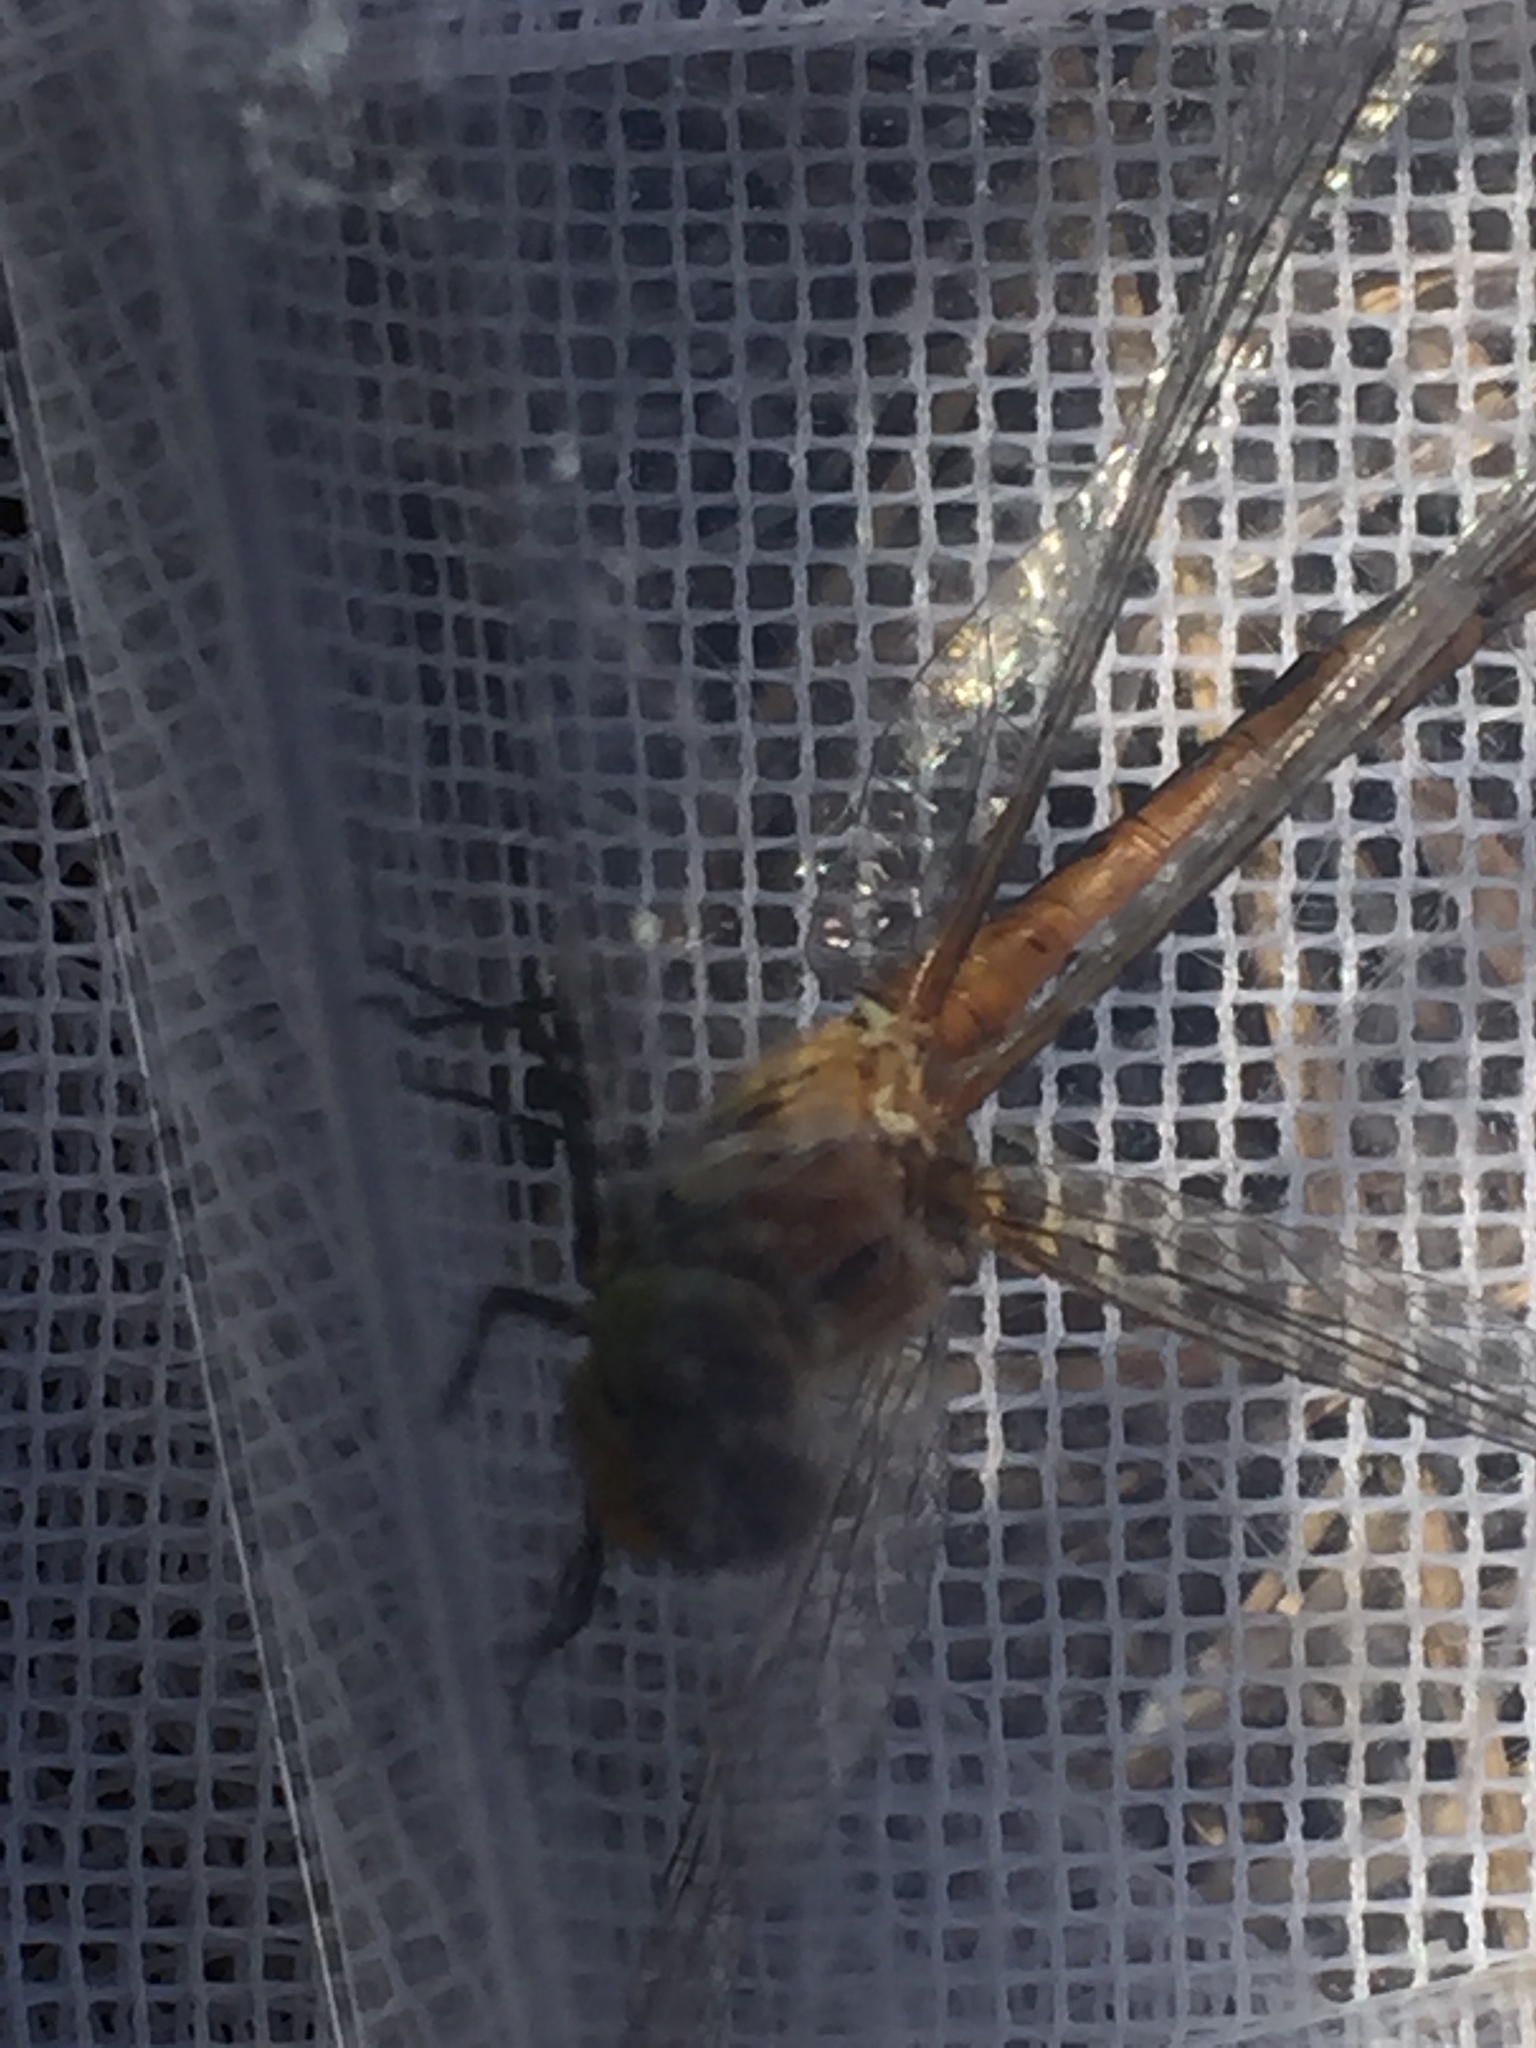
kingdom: Animalia
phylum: Arthropoda
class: Insecta
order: Odonata
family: Libellulidae
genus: Sympetrum
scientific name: Sympetrum sanguineum
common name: Ruddy darter
